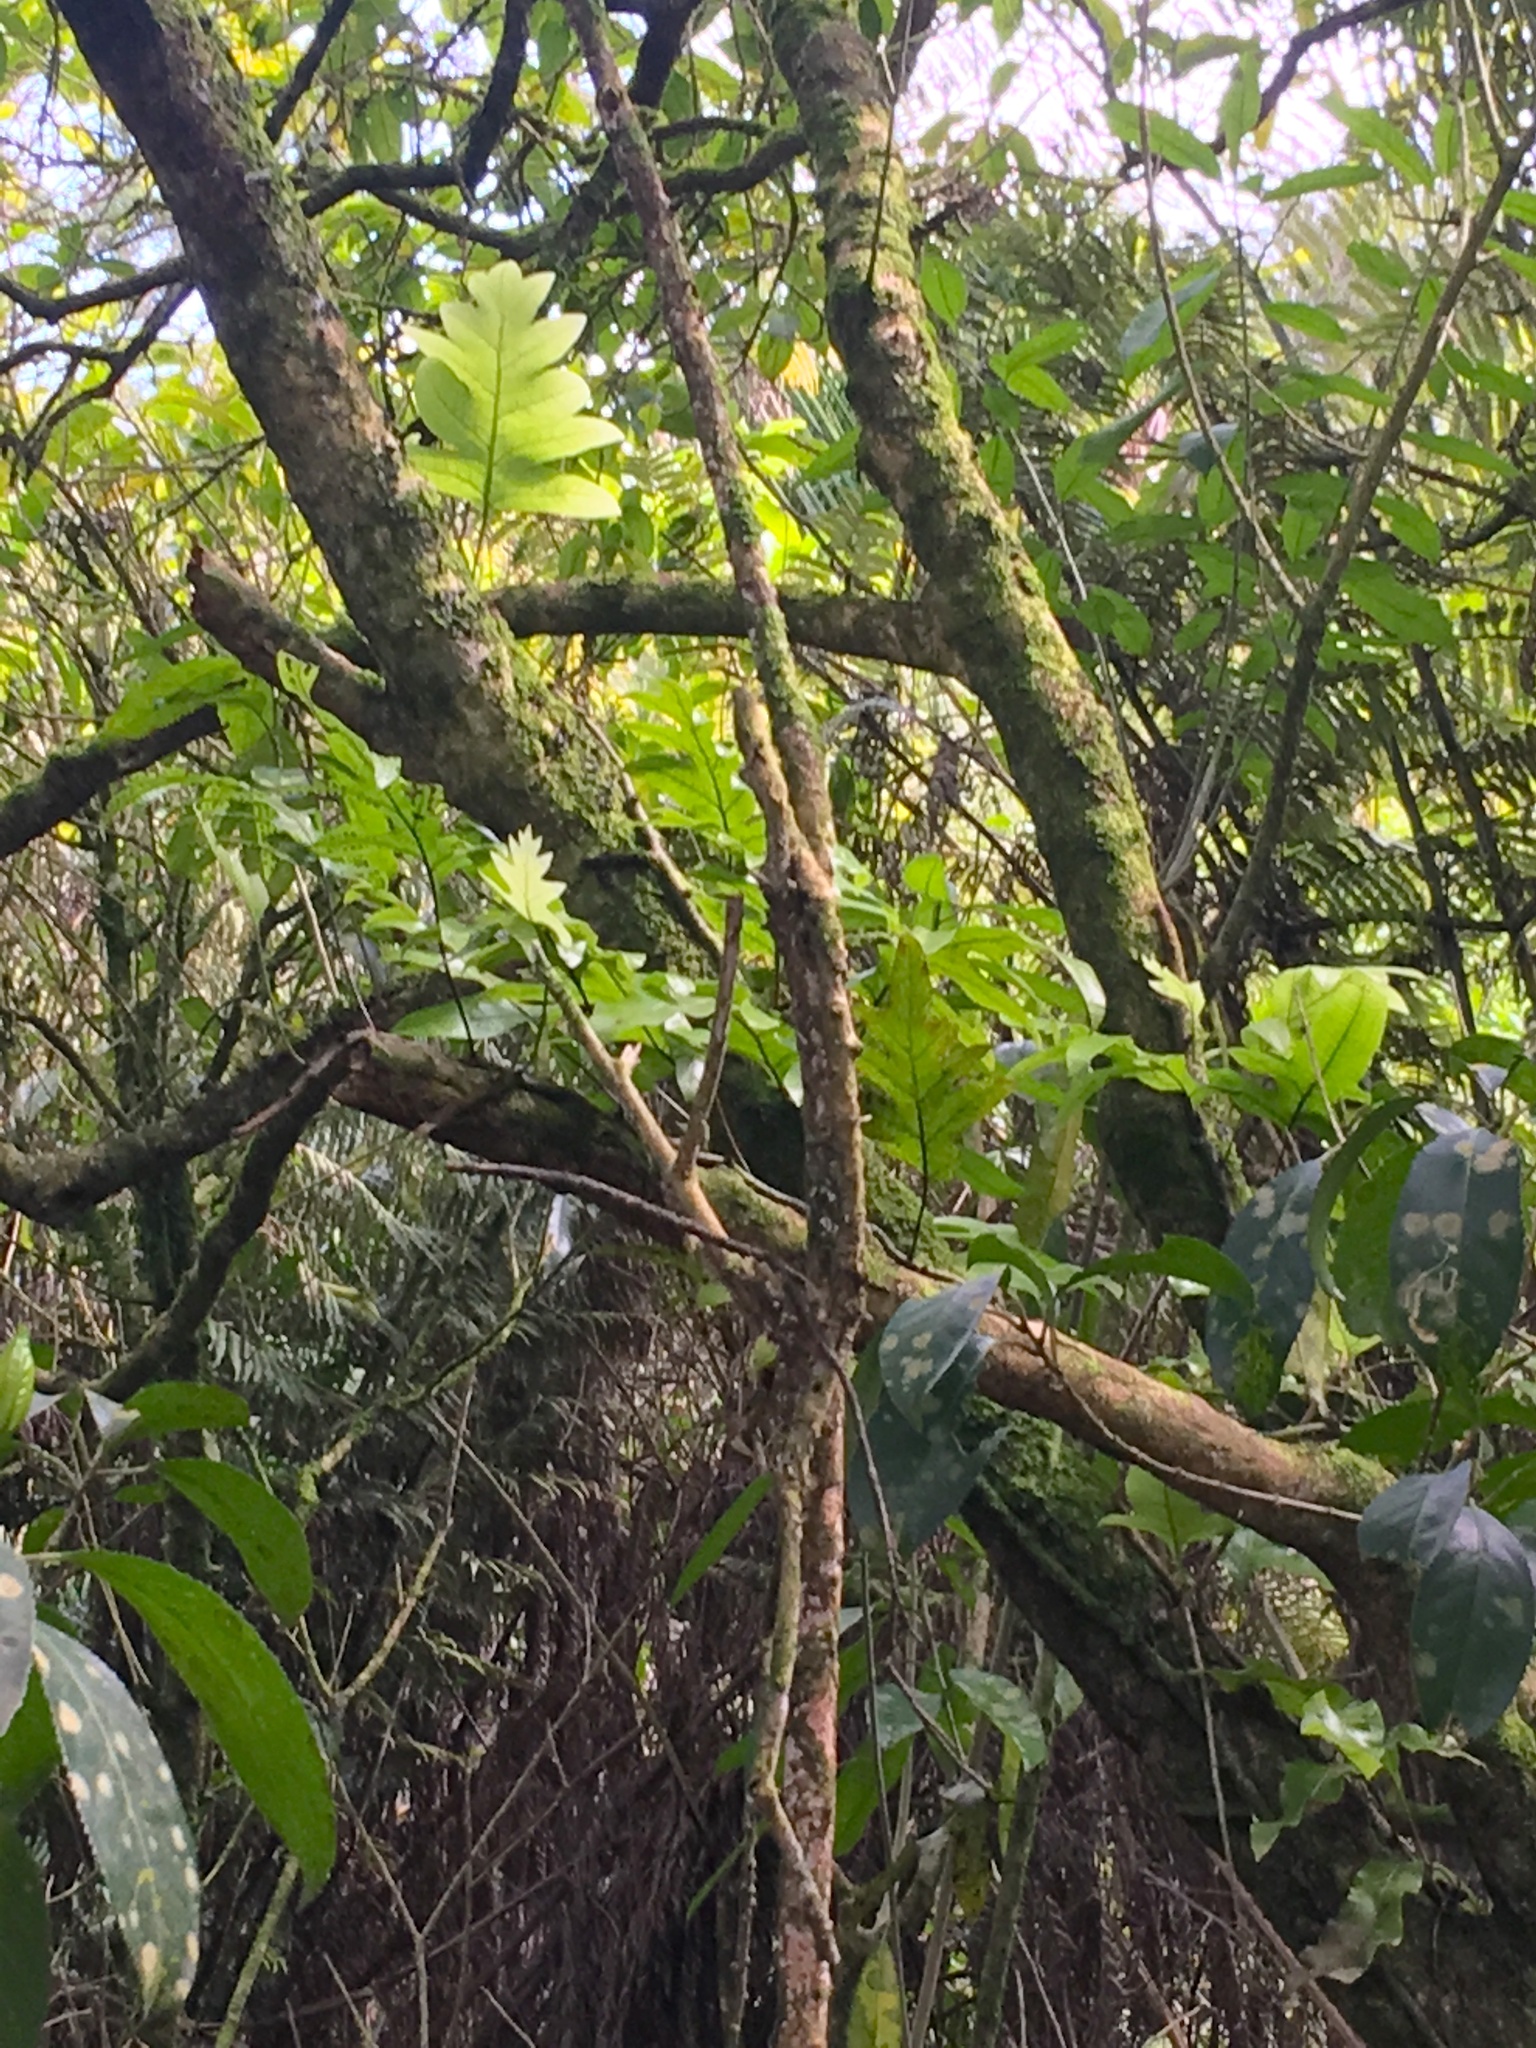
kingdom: Plantae
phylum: Tracheophyta
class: Polypodiopsida
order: Polypodiales
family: Polypodiaceae
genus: Lecanopteris
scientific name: Lecanopteris pustulata
